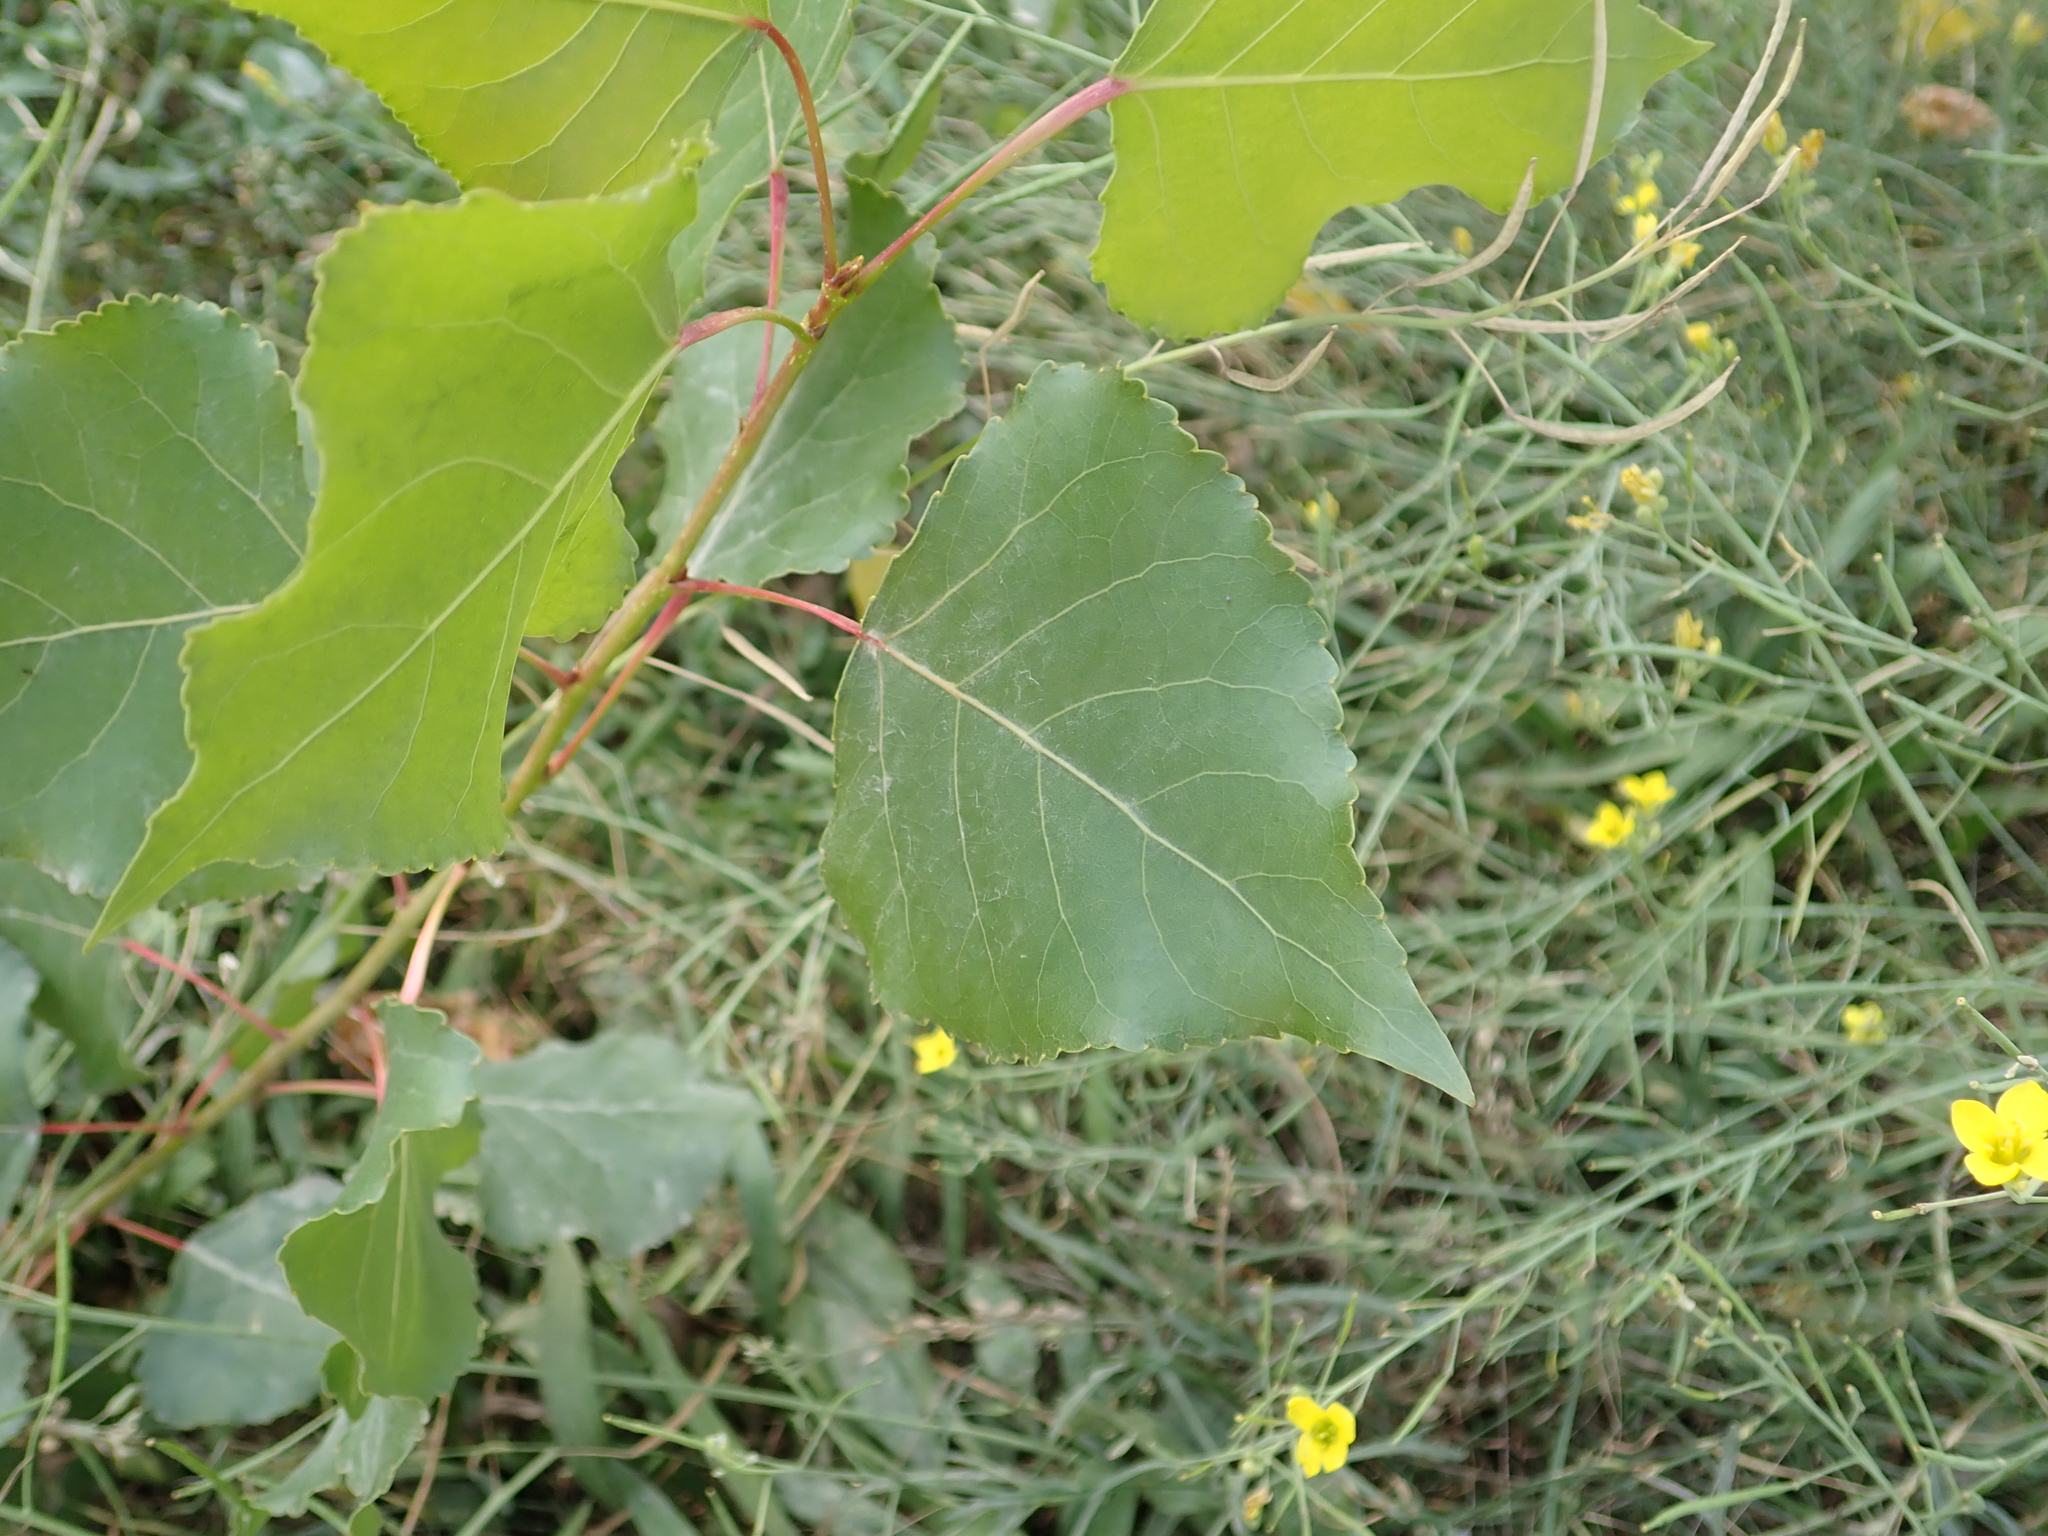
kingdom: Plantae
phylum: Tracheophyta
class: Magnoliopsida
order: Malpighiales
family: Salicaceae
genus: Populus
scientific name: Populus nigra
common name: Black poplar
